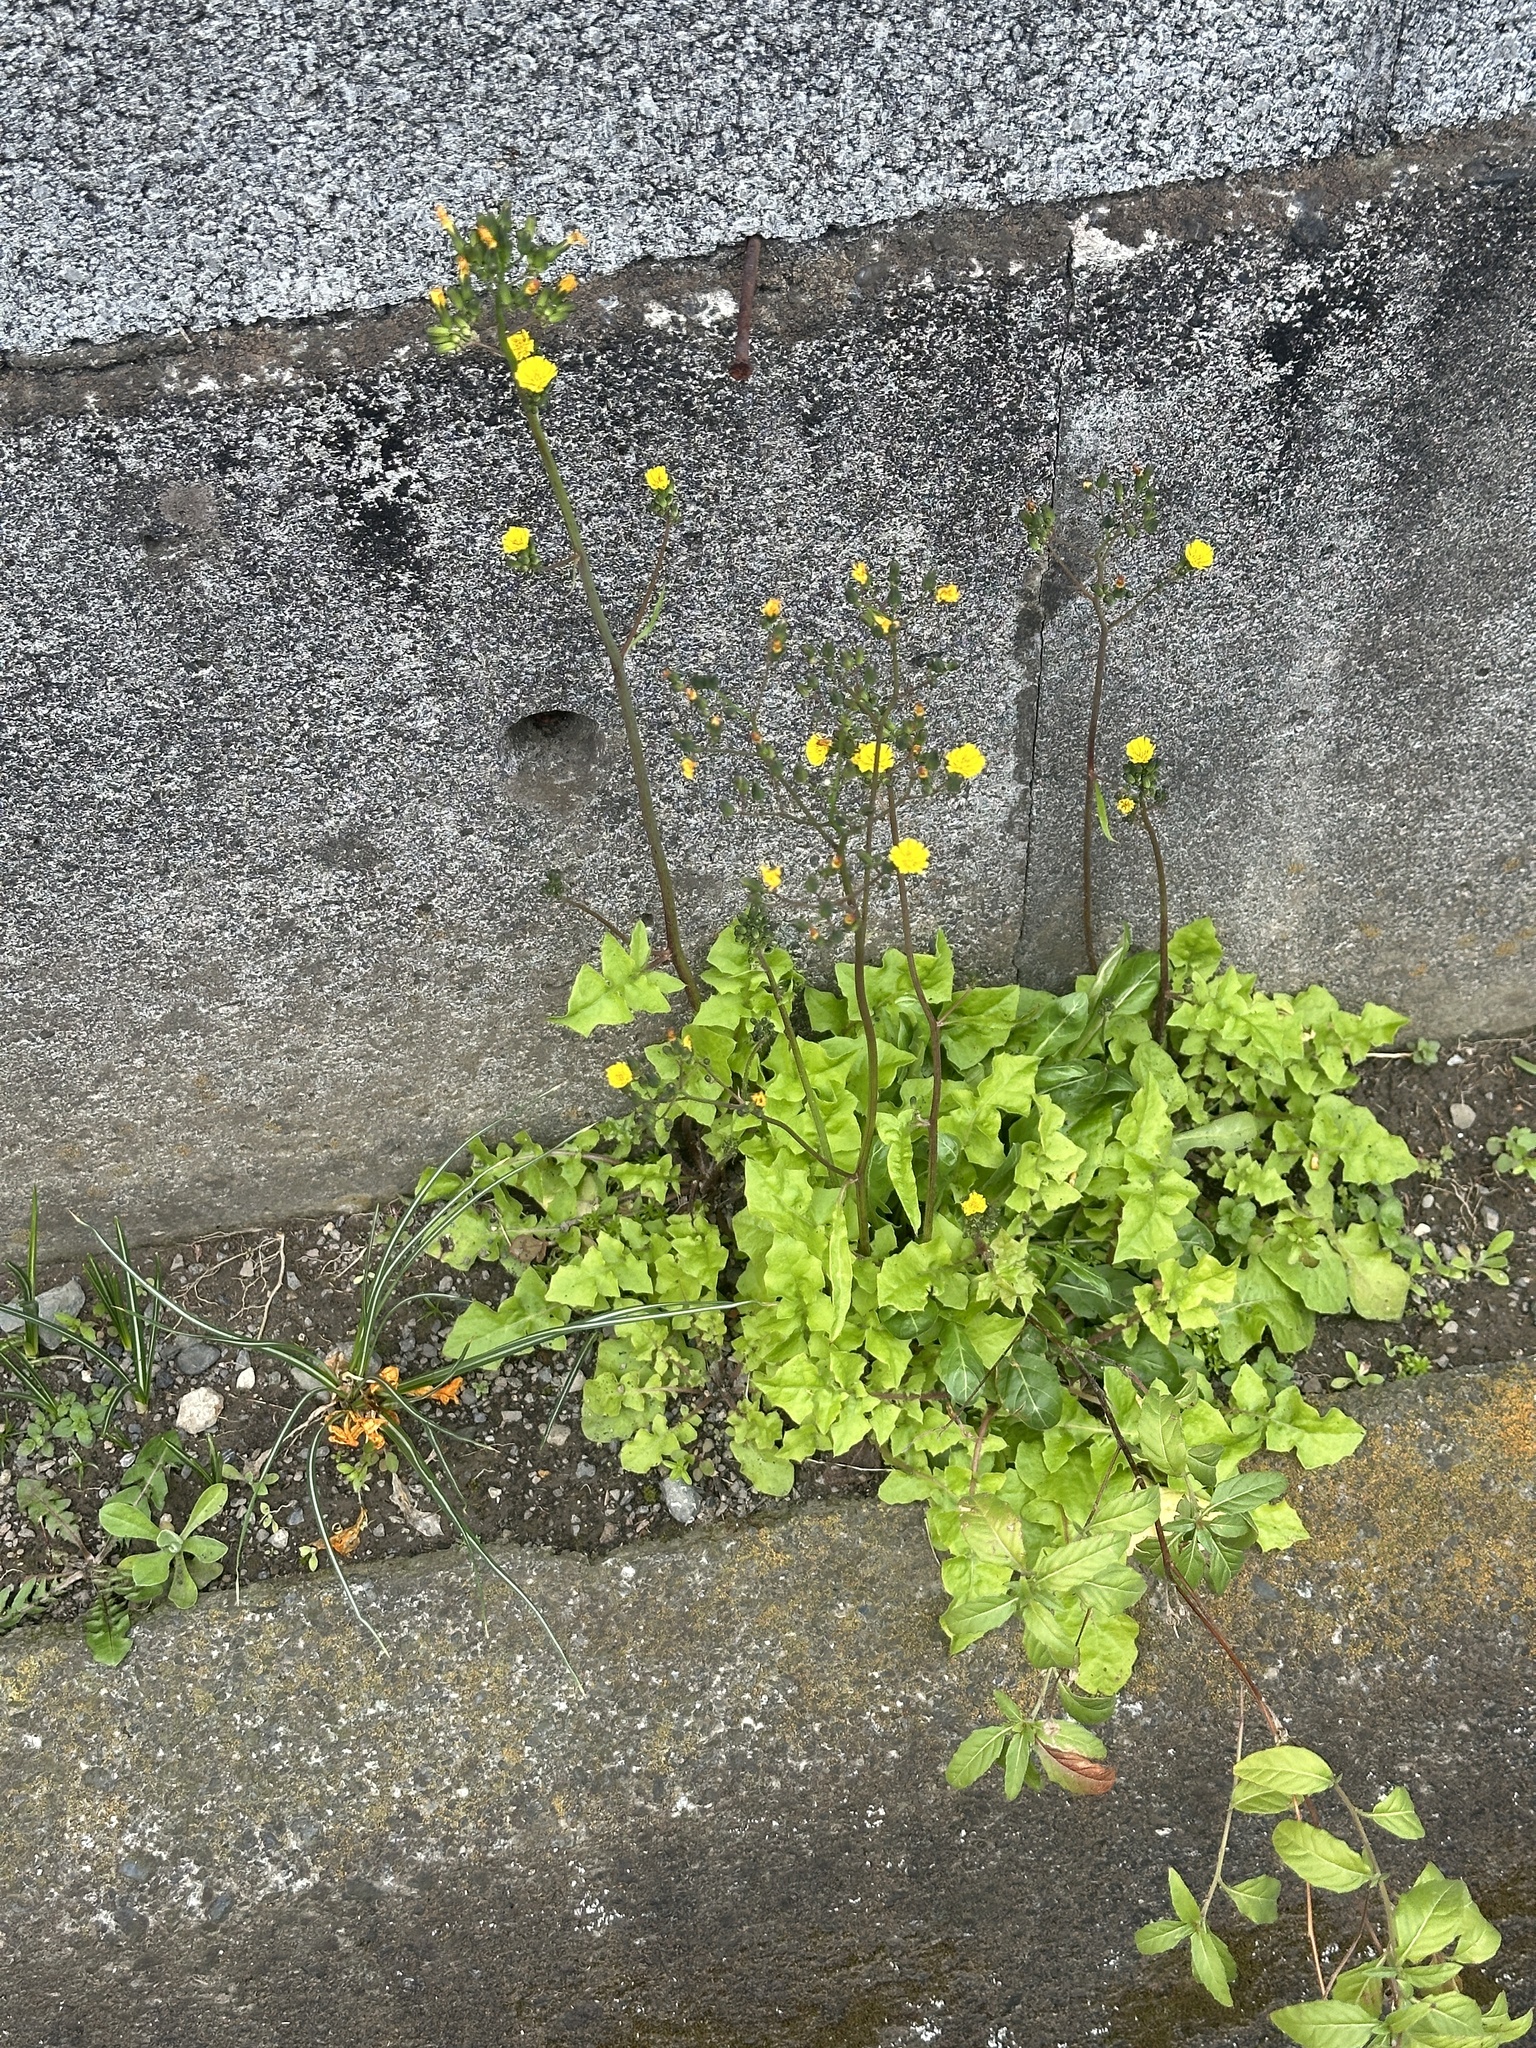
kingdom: Plantae
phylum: Tracheophyta
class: Magnoliopsida
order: Asterales
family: Asteraceae
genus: Youngia
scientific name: Youngia japonica
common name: Oriental false hawksbeard
